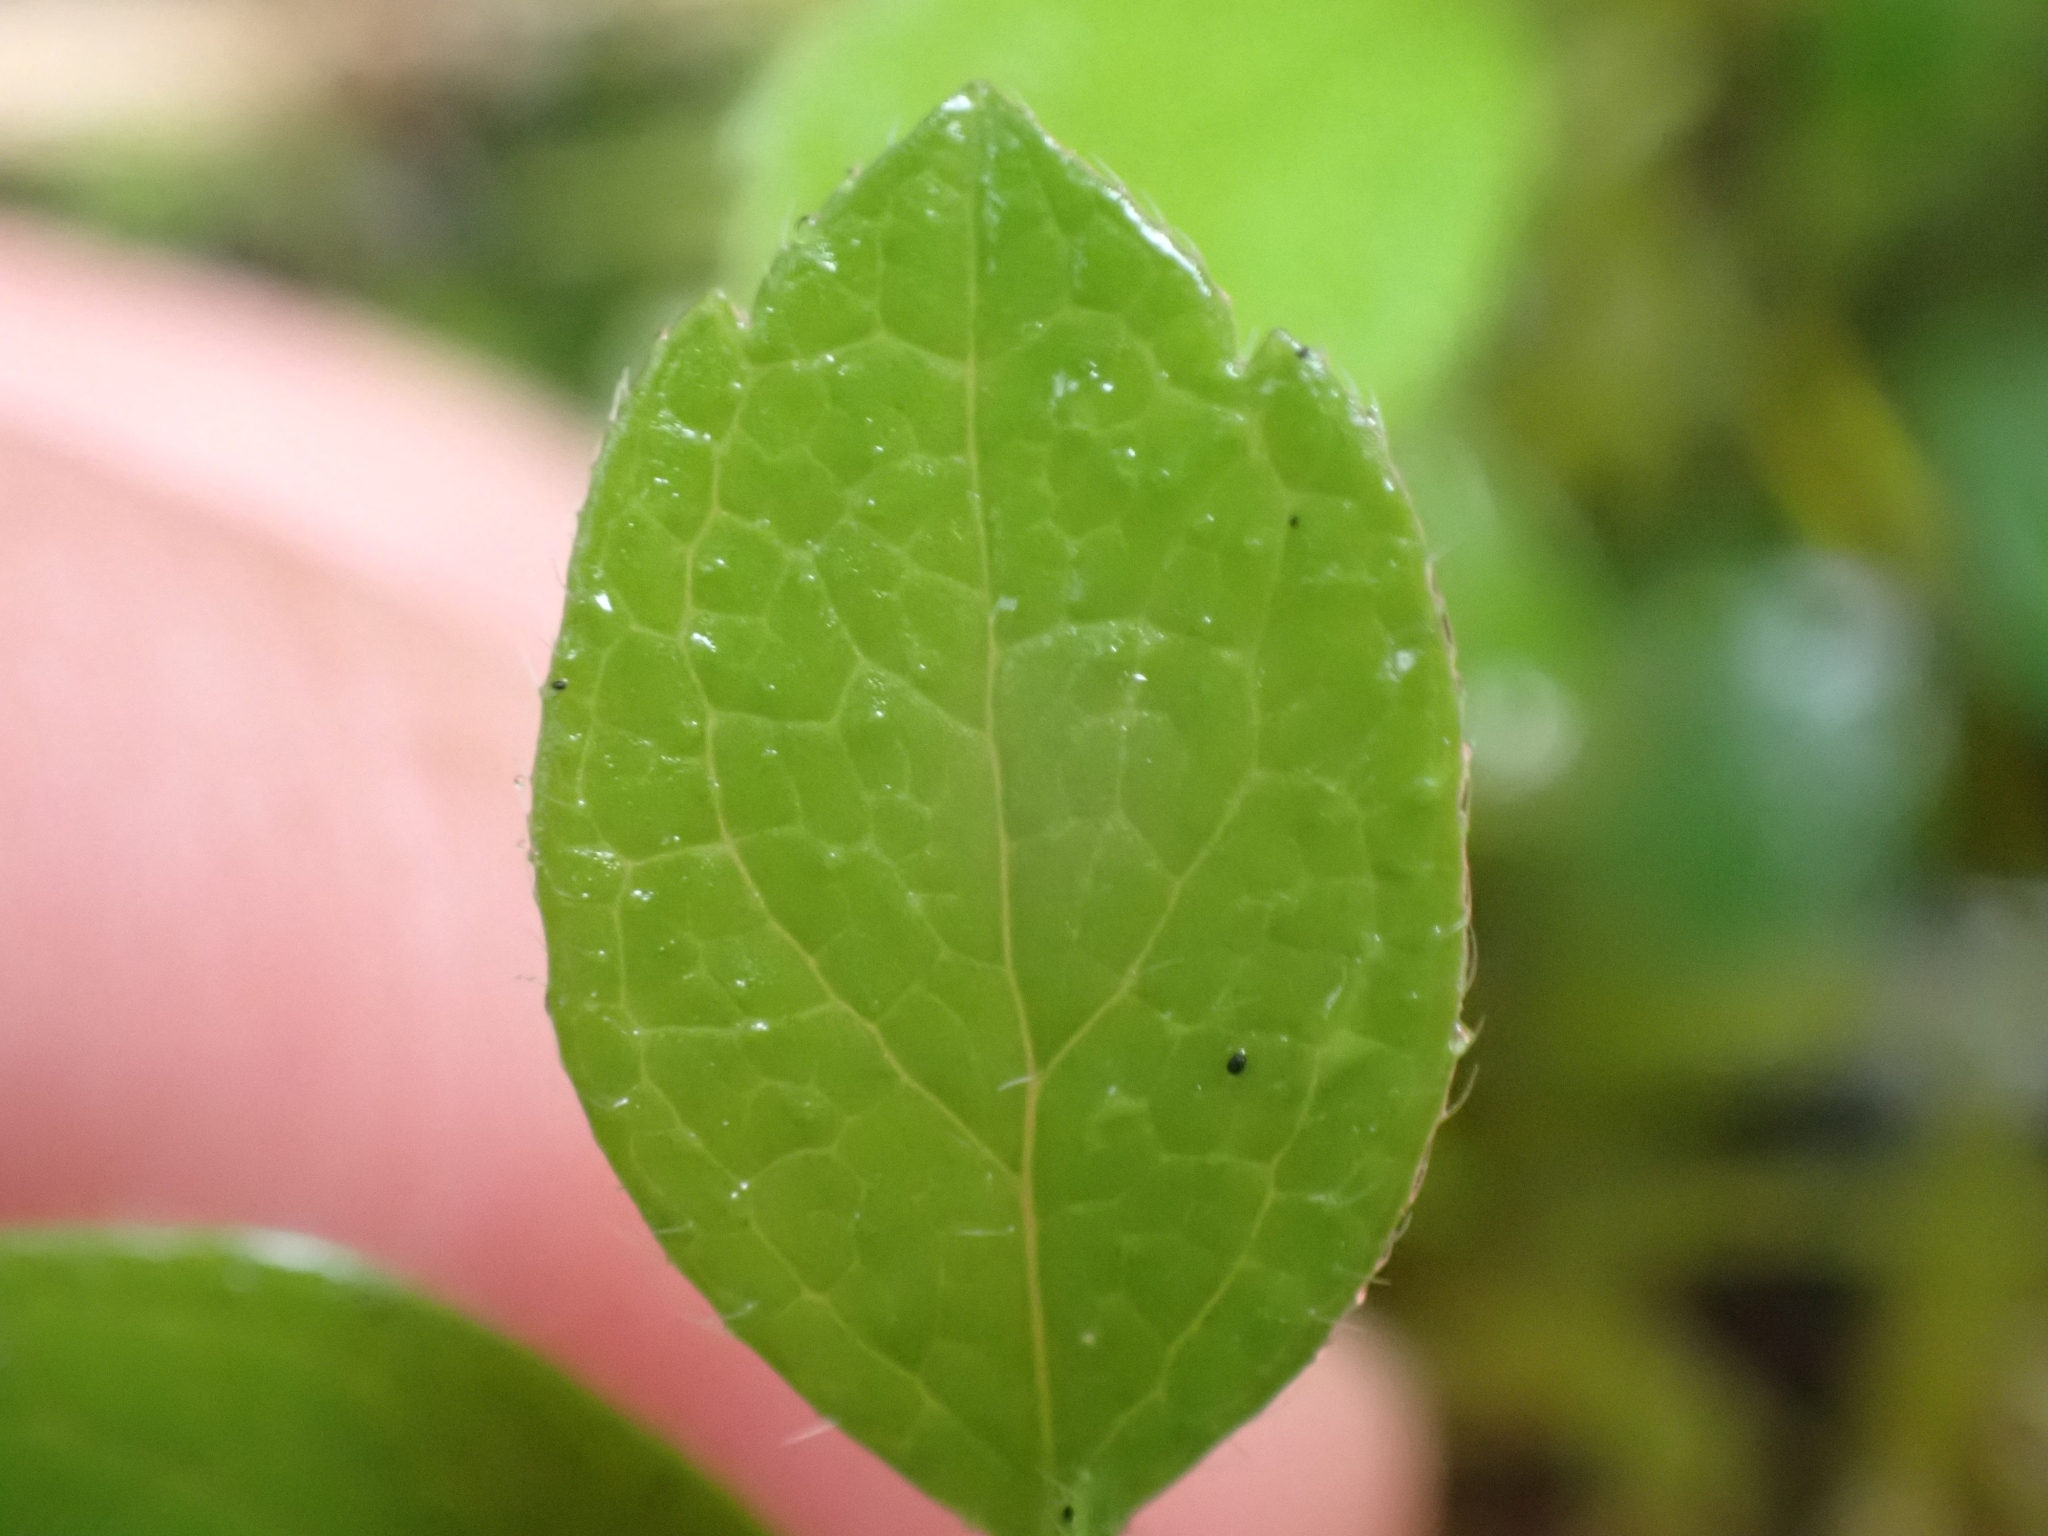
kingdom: Plantae
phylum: Tracheophyta
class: Magnoliopsida
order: Dipsacales
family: Caprifoliaceae
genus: Linnaea
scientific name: Linnaea borealis
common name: Twinflower
